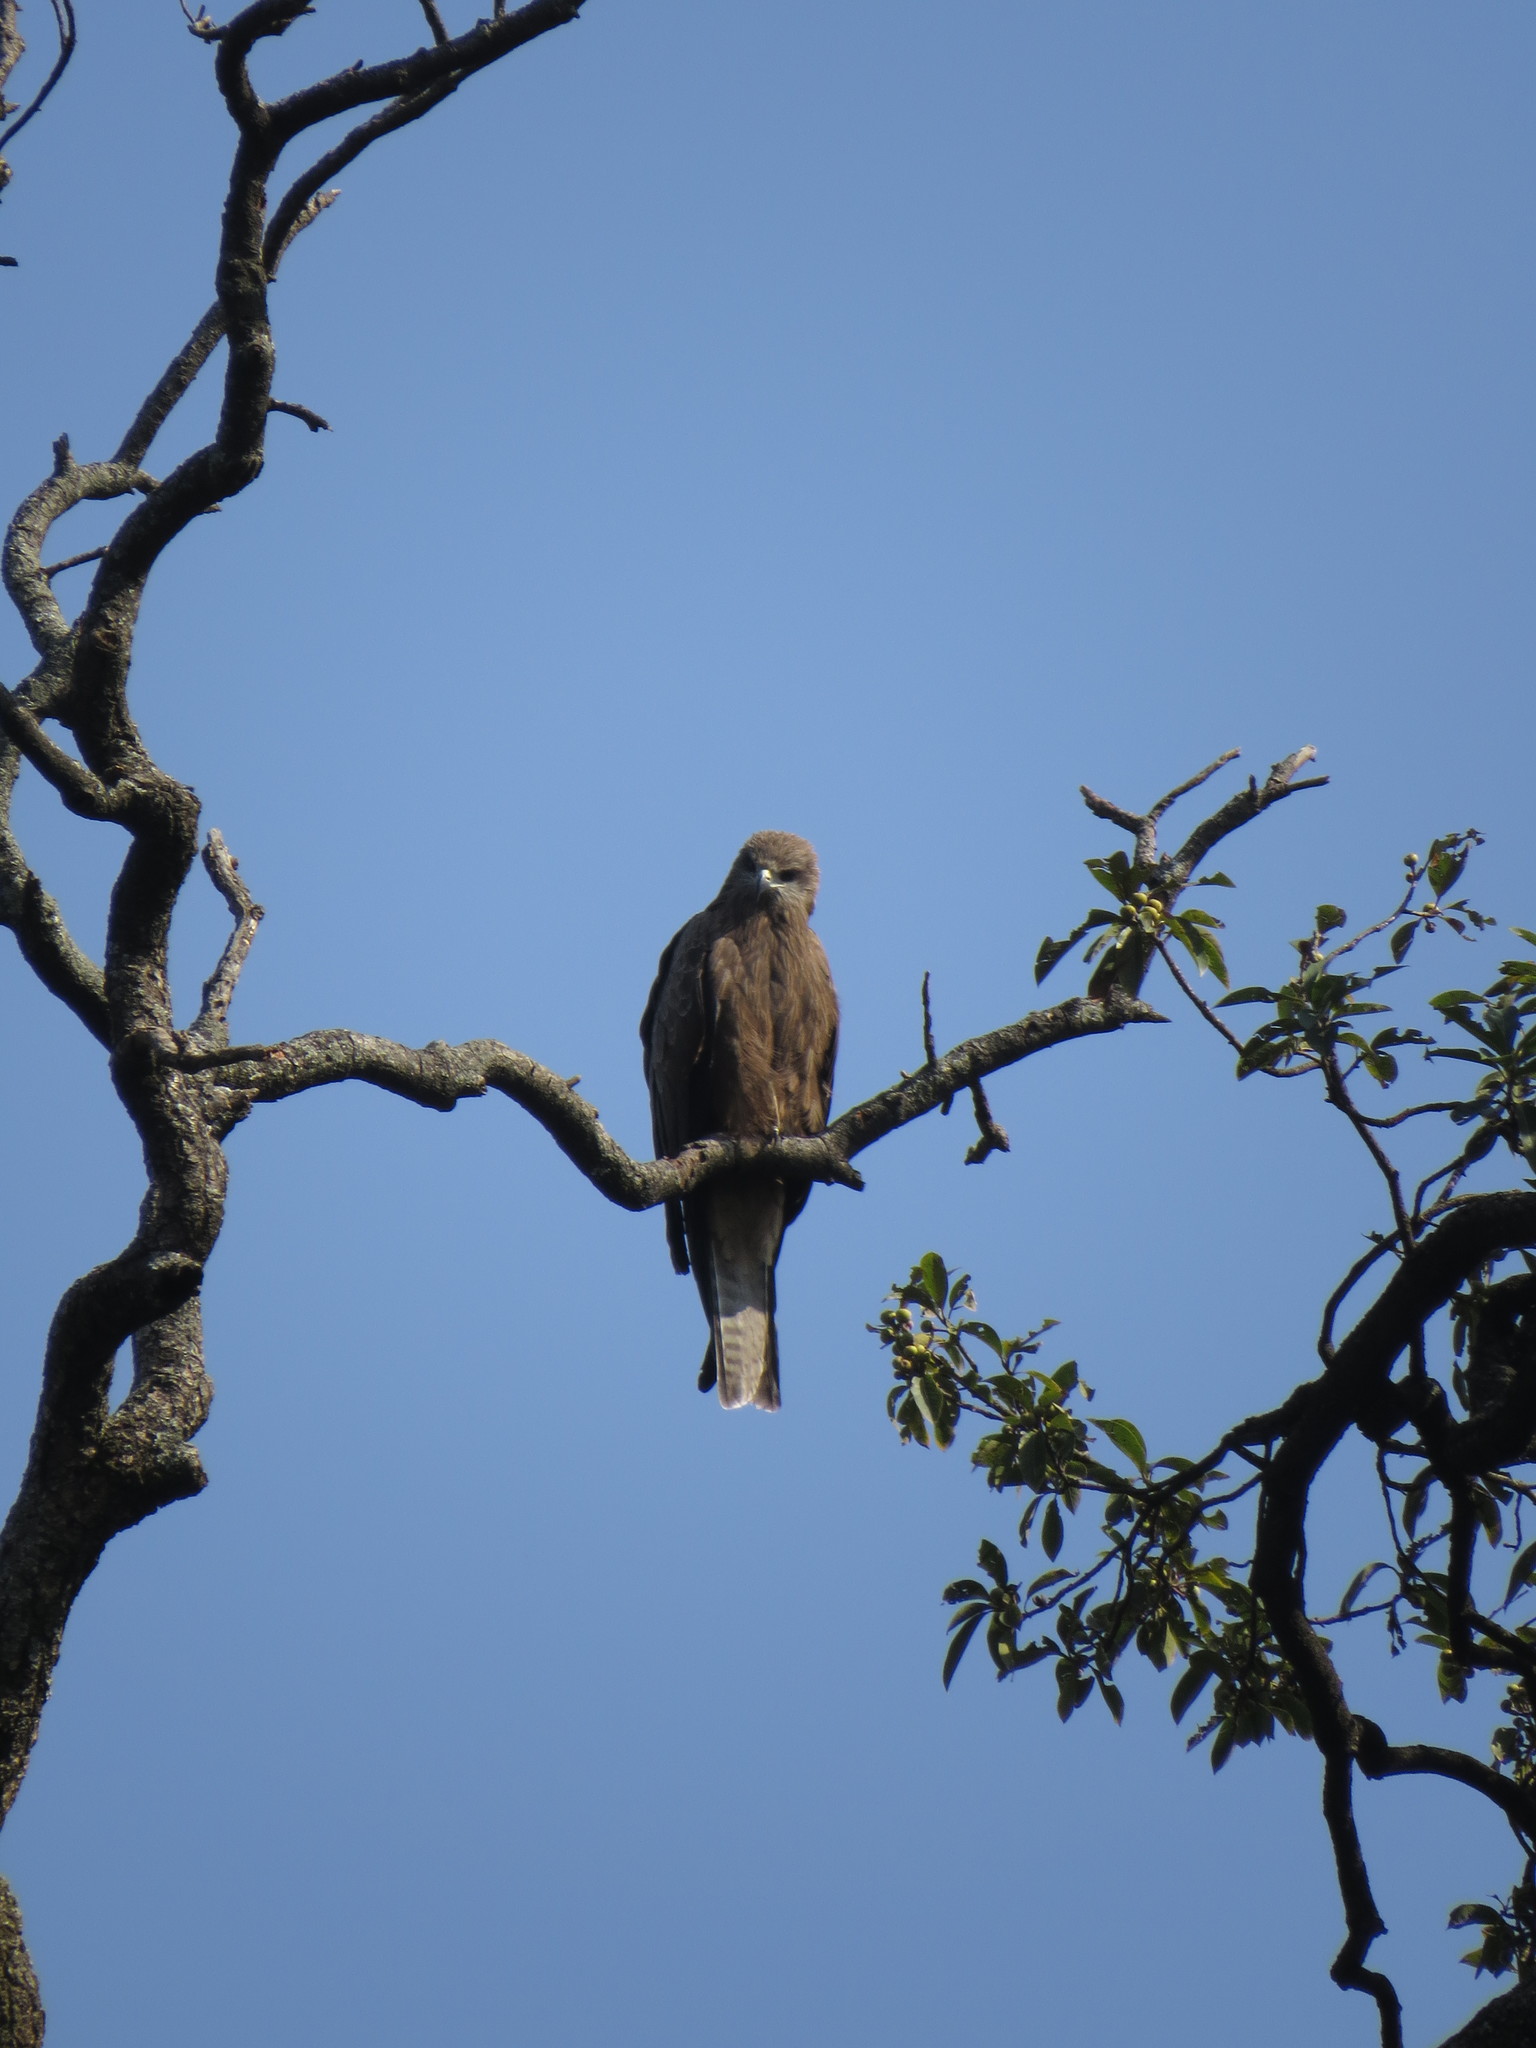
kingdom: Animalia
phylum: Chordata
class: Aves
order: Accipitriformes
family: Accipitridae
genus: Milvus
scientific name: Milvus migrans
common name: Black kite
